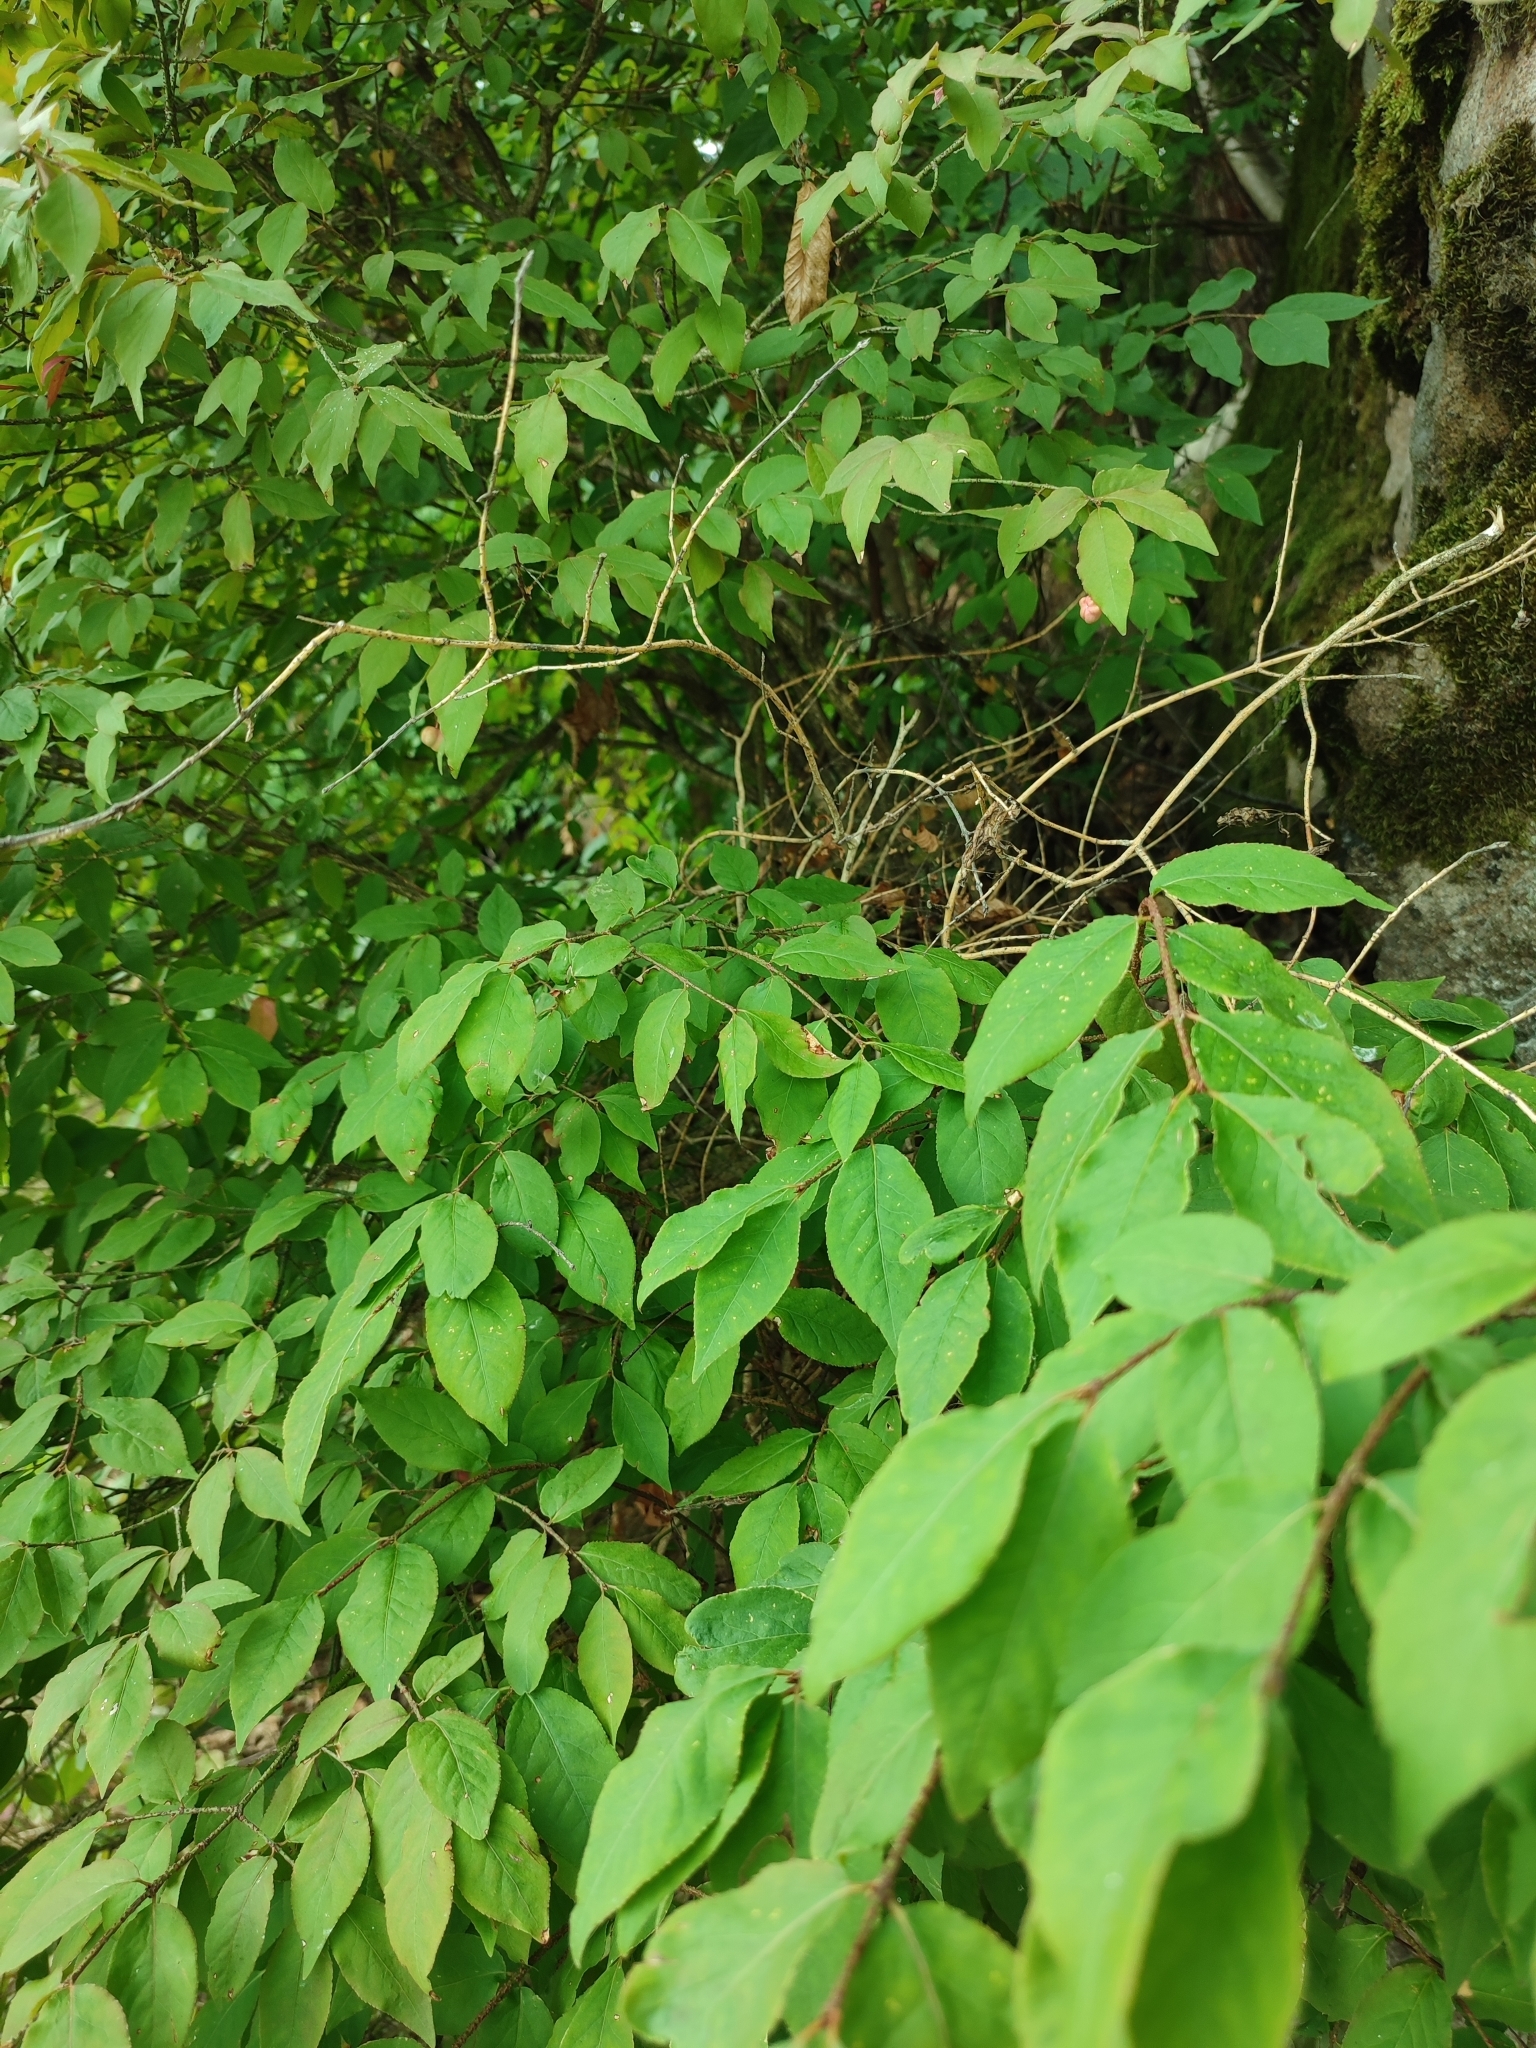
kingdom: Plantae
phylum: Tracheophyta
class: Magnoliopsida
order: Celastrales
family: Celastraceae
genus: Euonymus
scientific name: Euonymus verrucosus
